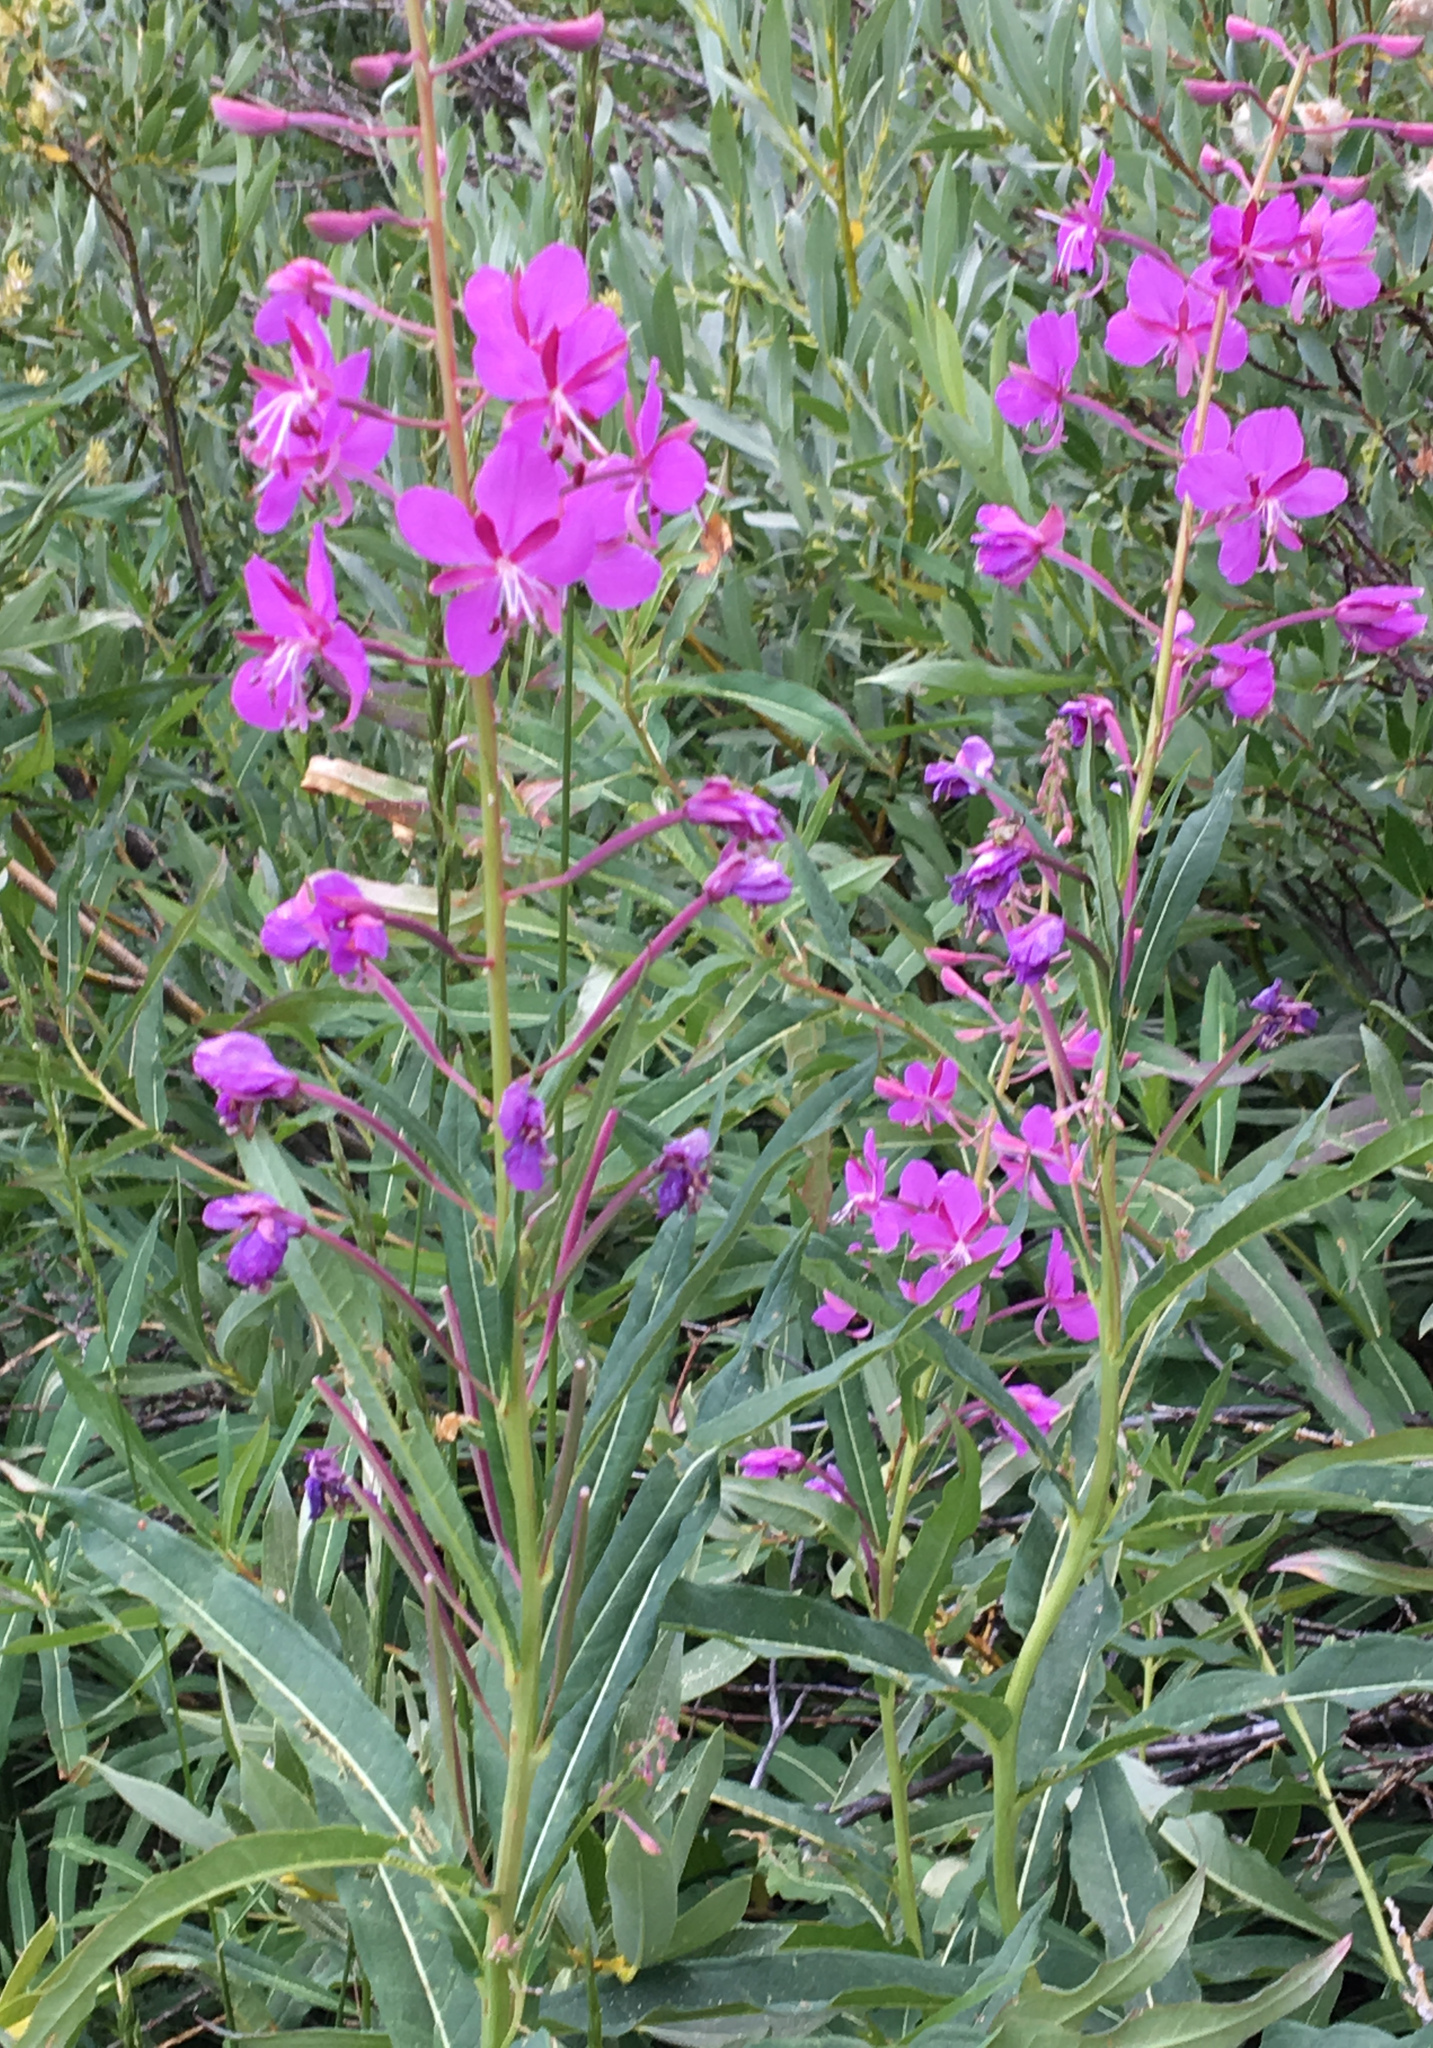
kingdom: Plantae
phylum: Tracheophyta
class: Magnoliopsida
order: Myrtales
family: Onagraceae
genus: Chamaenerion
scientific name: Chamaenerion angustifolium
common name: Fireweed
